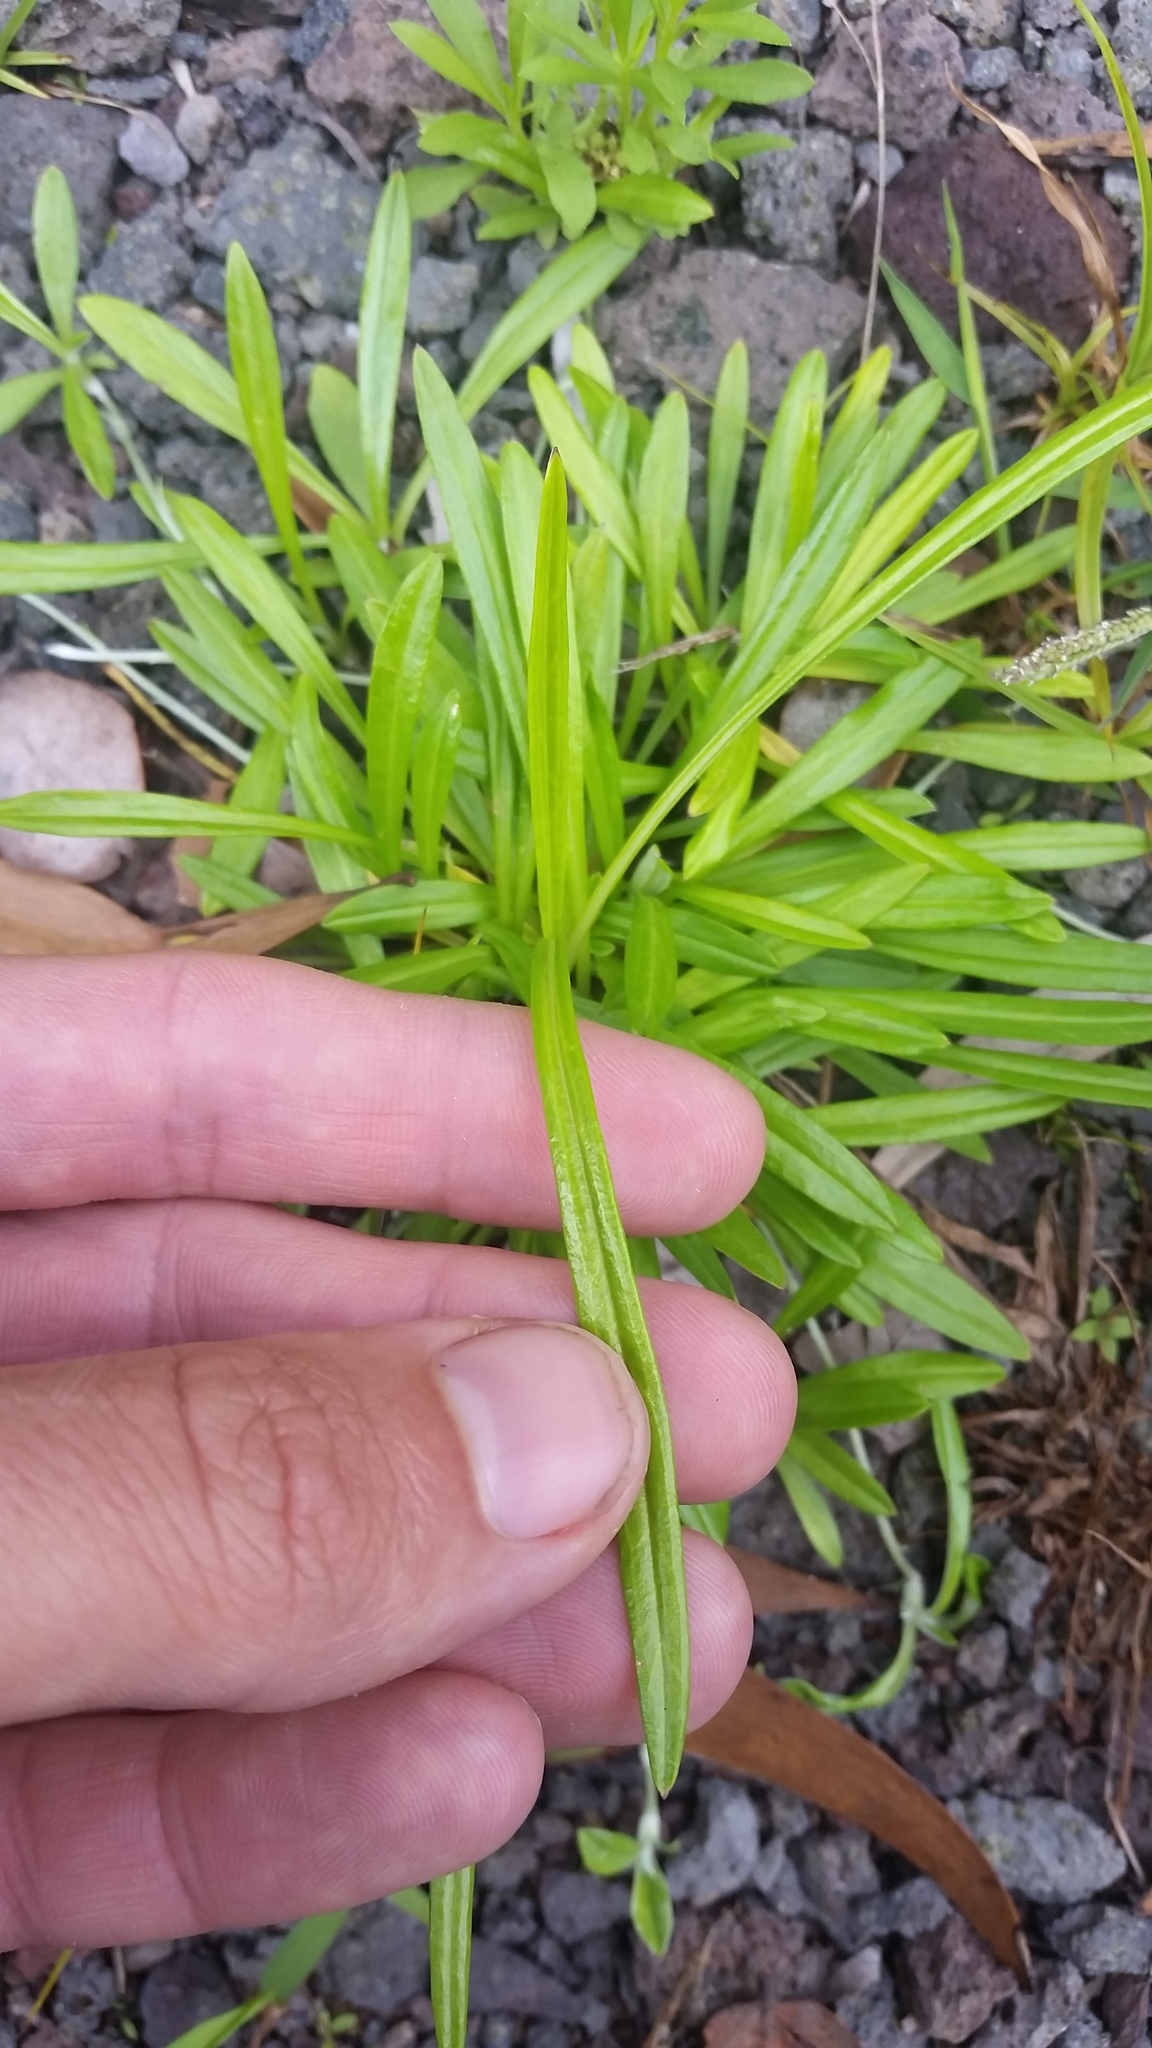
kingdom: Plantae
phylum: Tracheophyta
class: Magnoliopsida
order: Asterales
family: Asteraceae
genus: Euchiton
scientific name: Euchiton sphaericus
